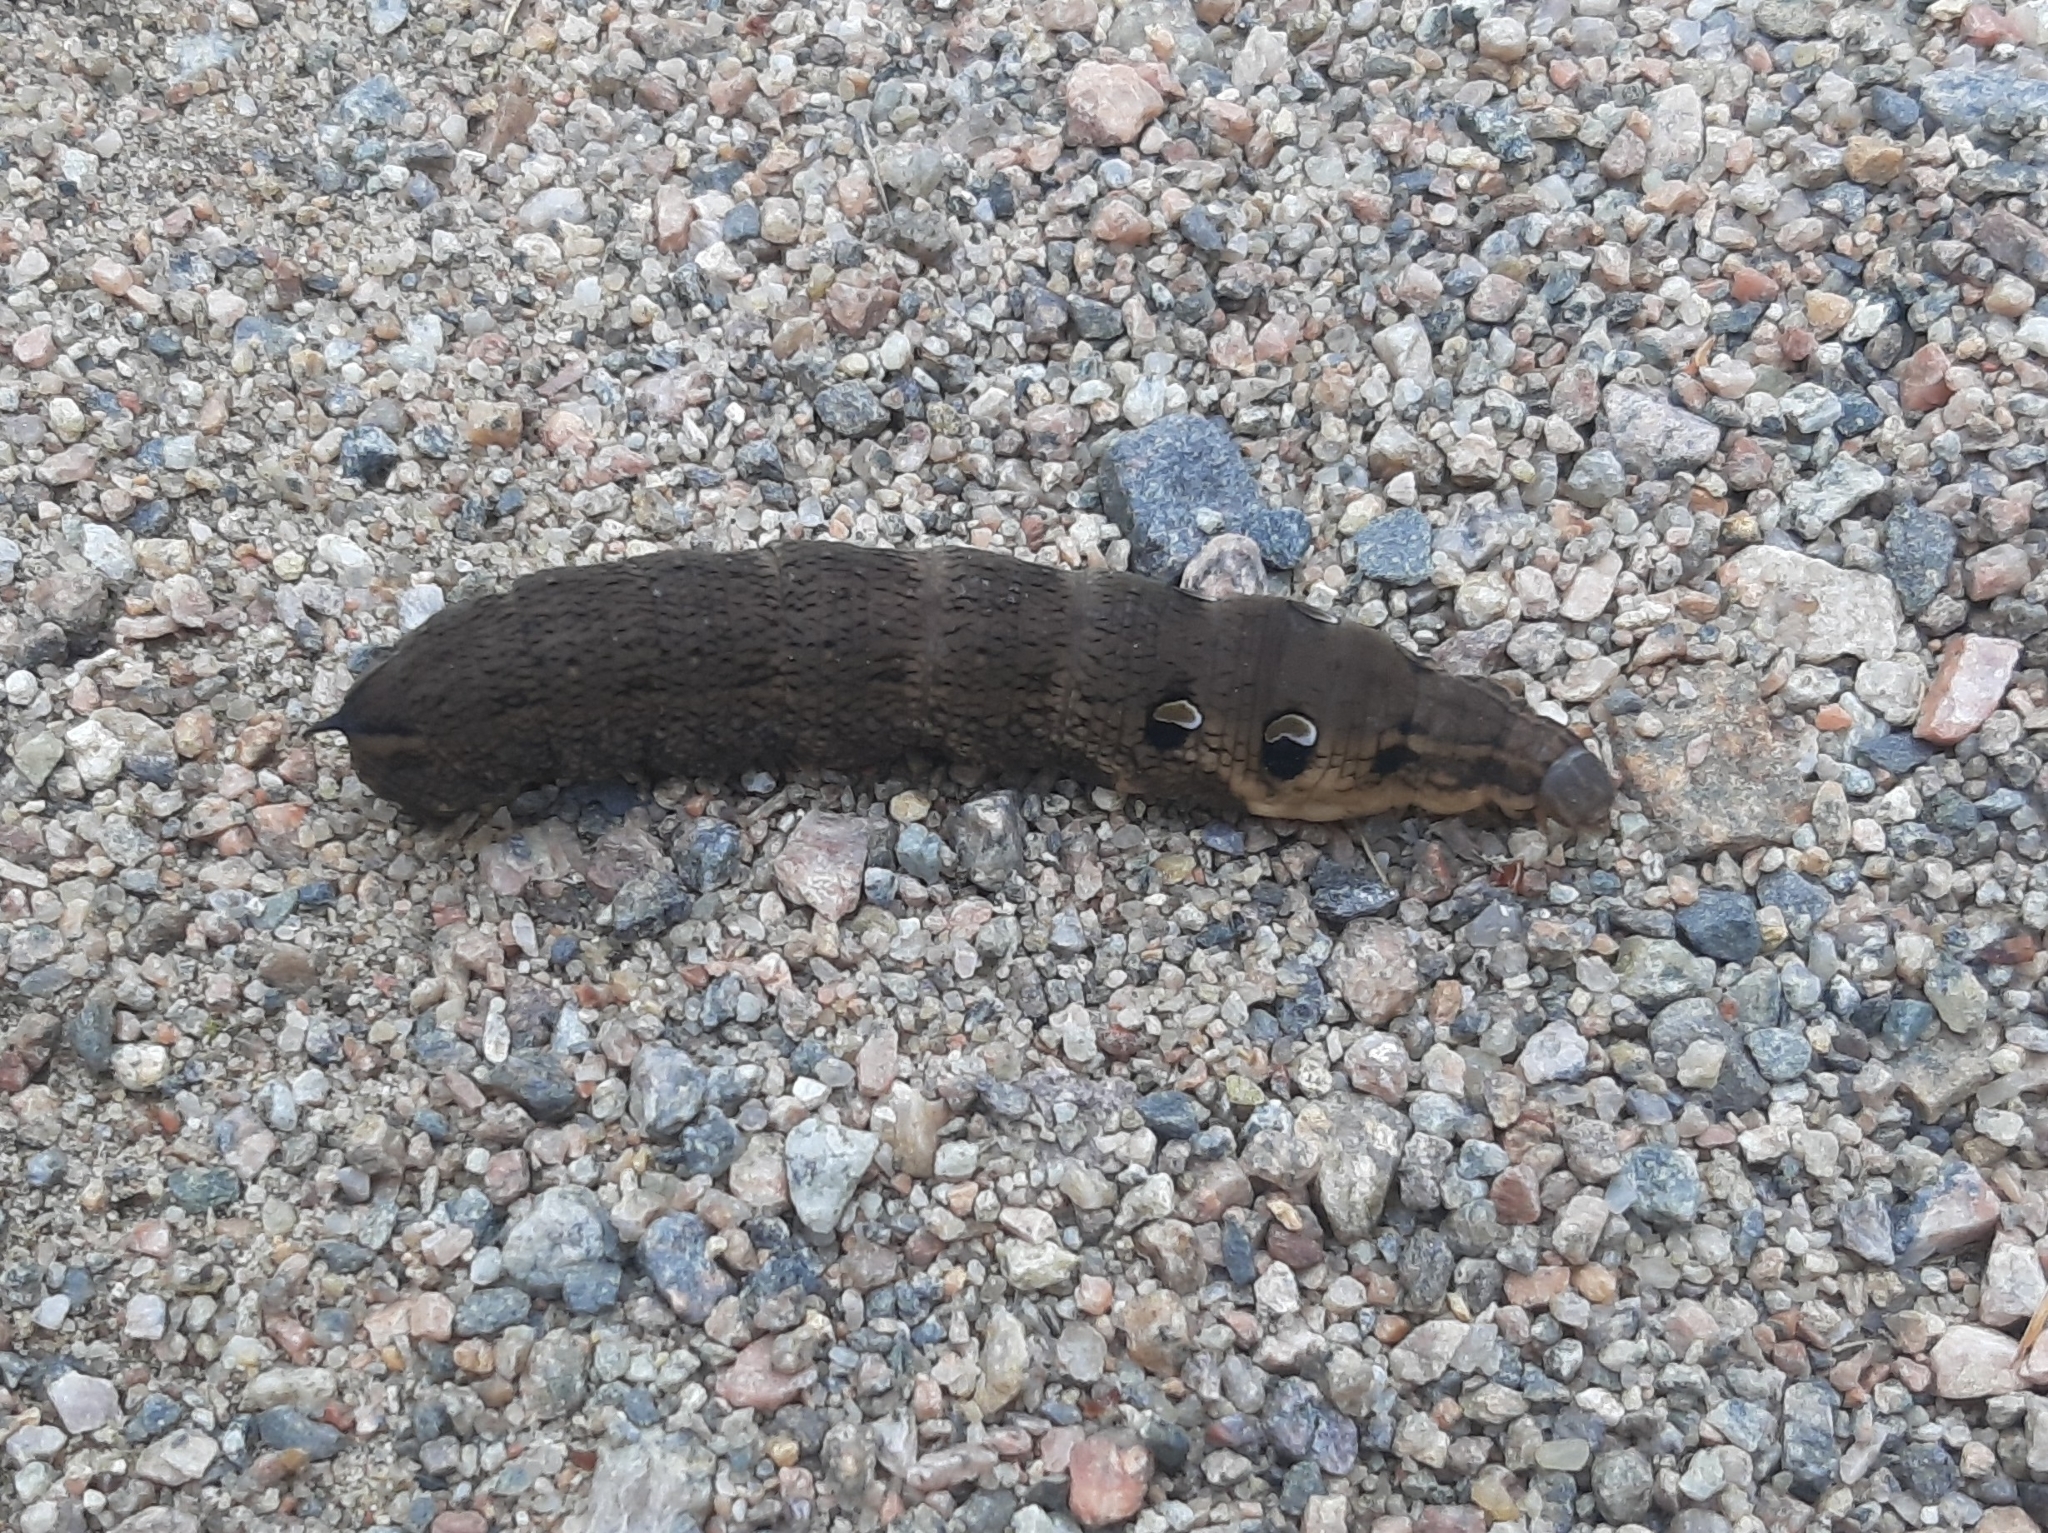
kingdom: Animalia
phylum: Arthropoda
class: Insecta
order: Lepidoptera
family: Sphingidae
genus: Deilephila
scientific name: Deilephila elpenor
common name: Elephant hawk-moth
